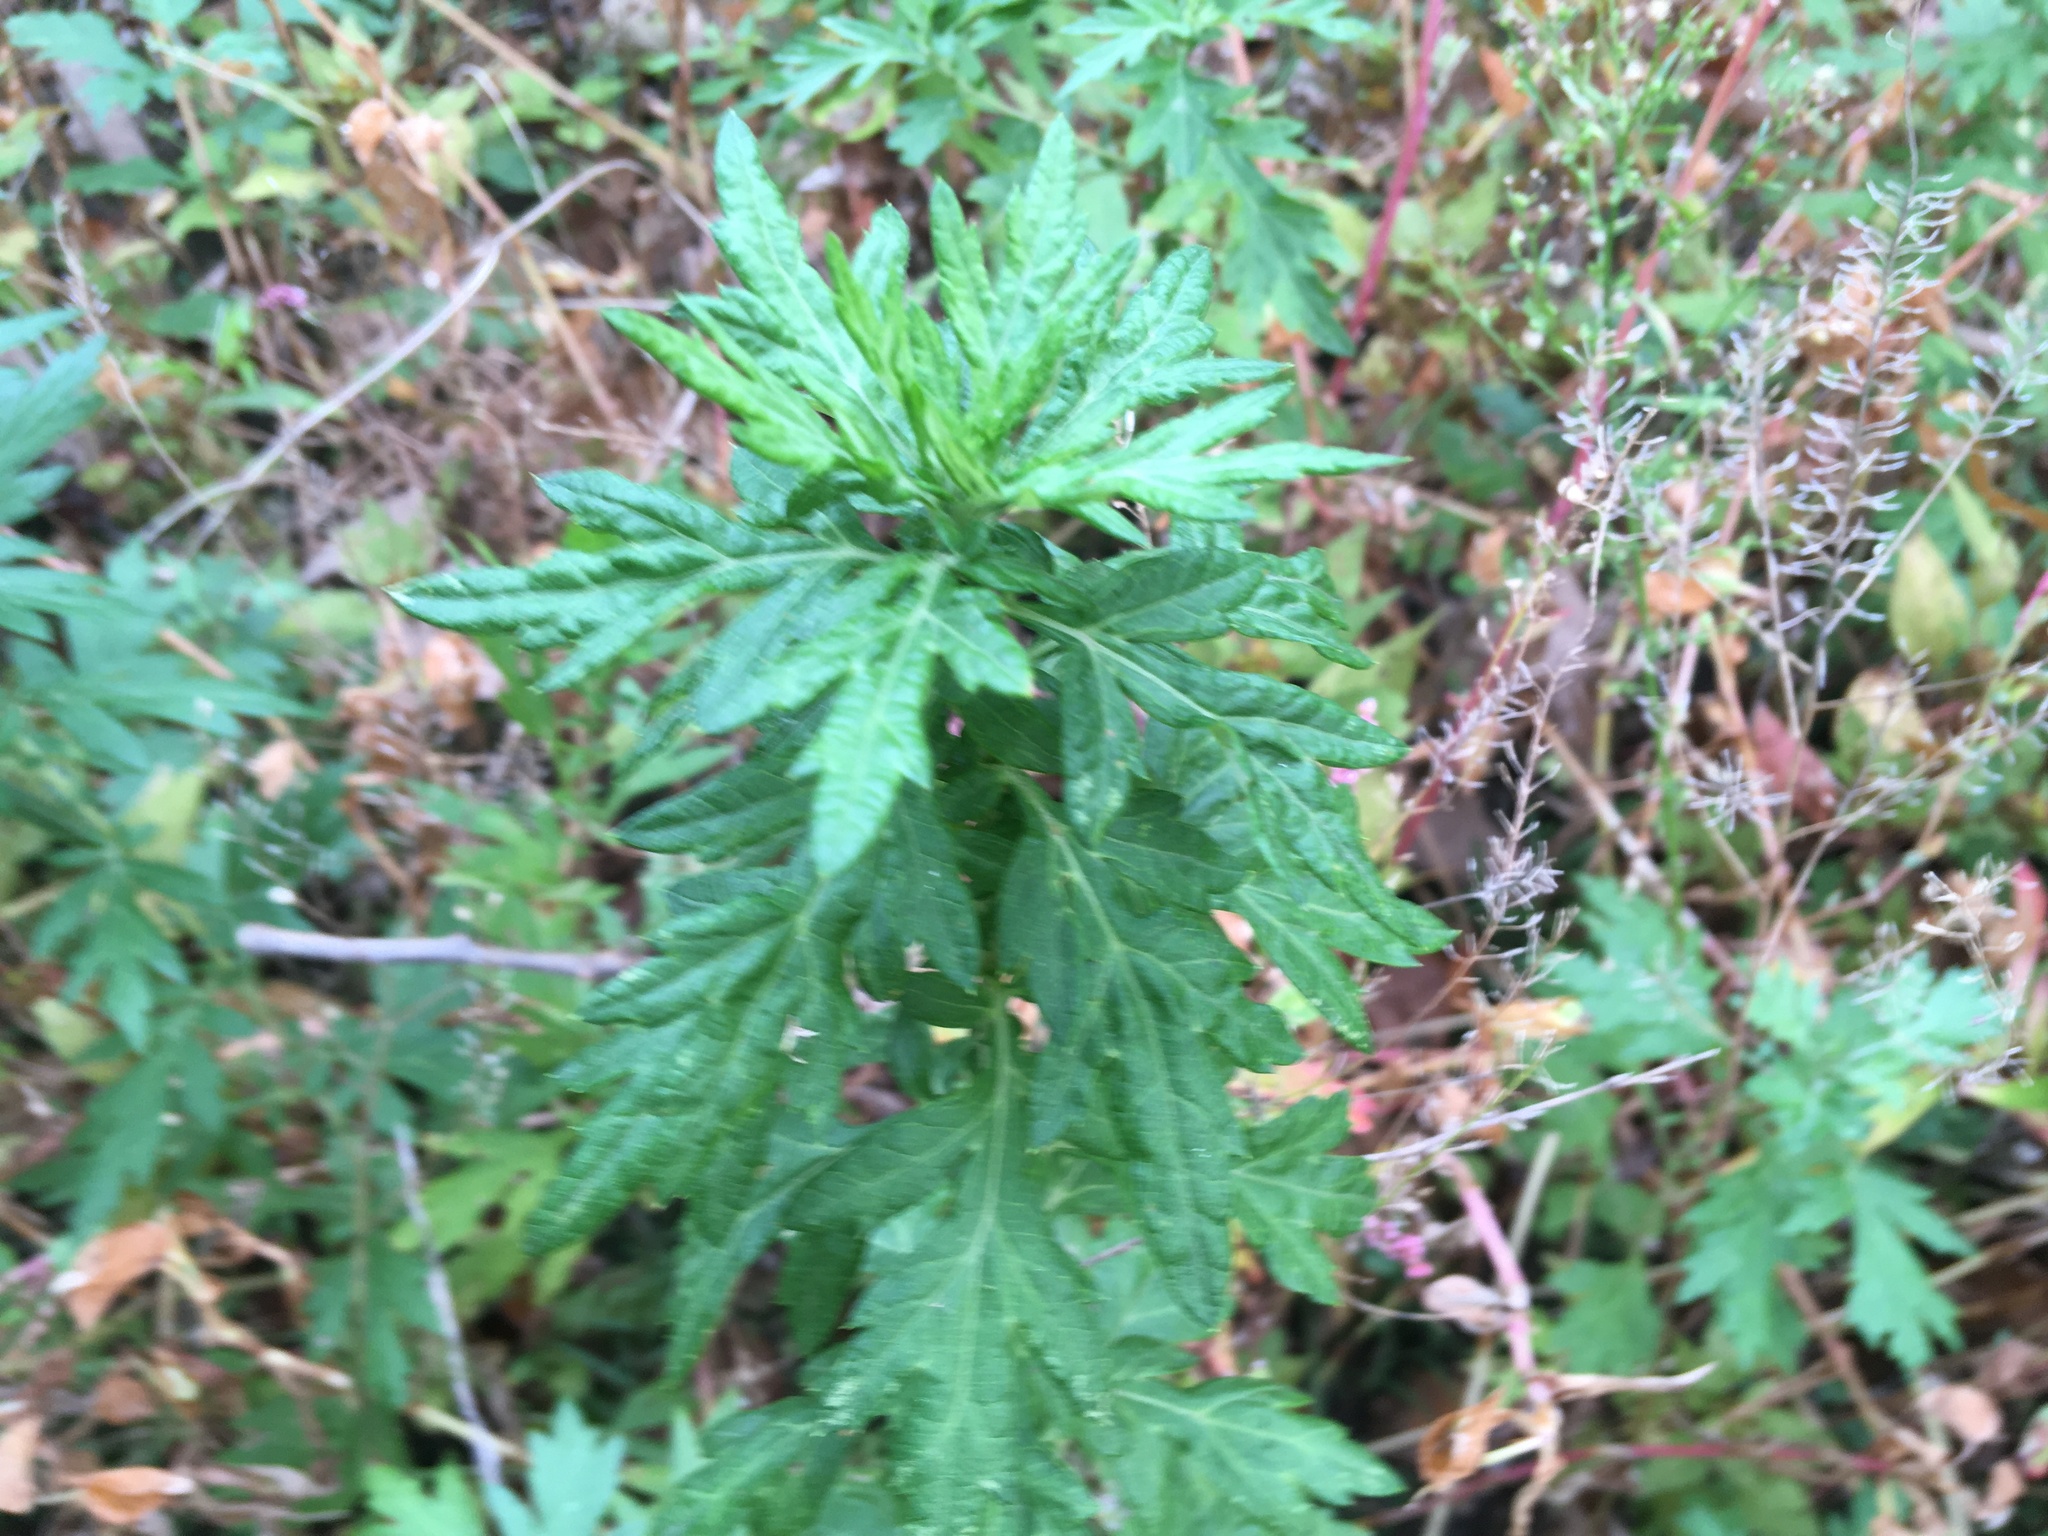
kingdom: Plantae
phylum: Tracheophyta
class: Magnoliopsida
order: Asterales
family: Asteraceae
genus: Artemisia
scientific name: Artemisia vulgaris
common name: Mugwort
